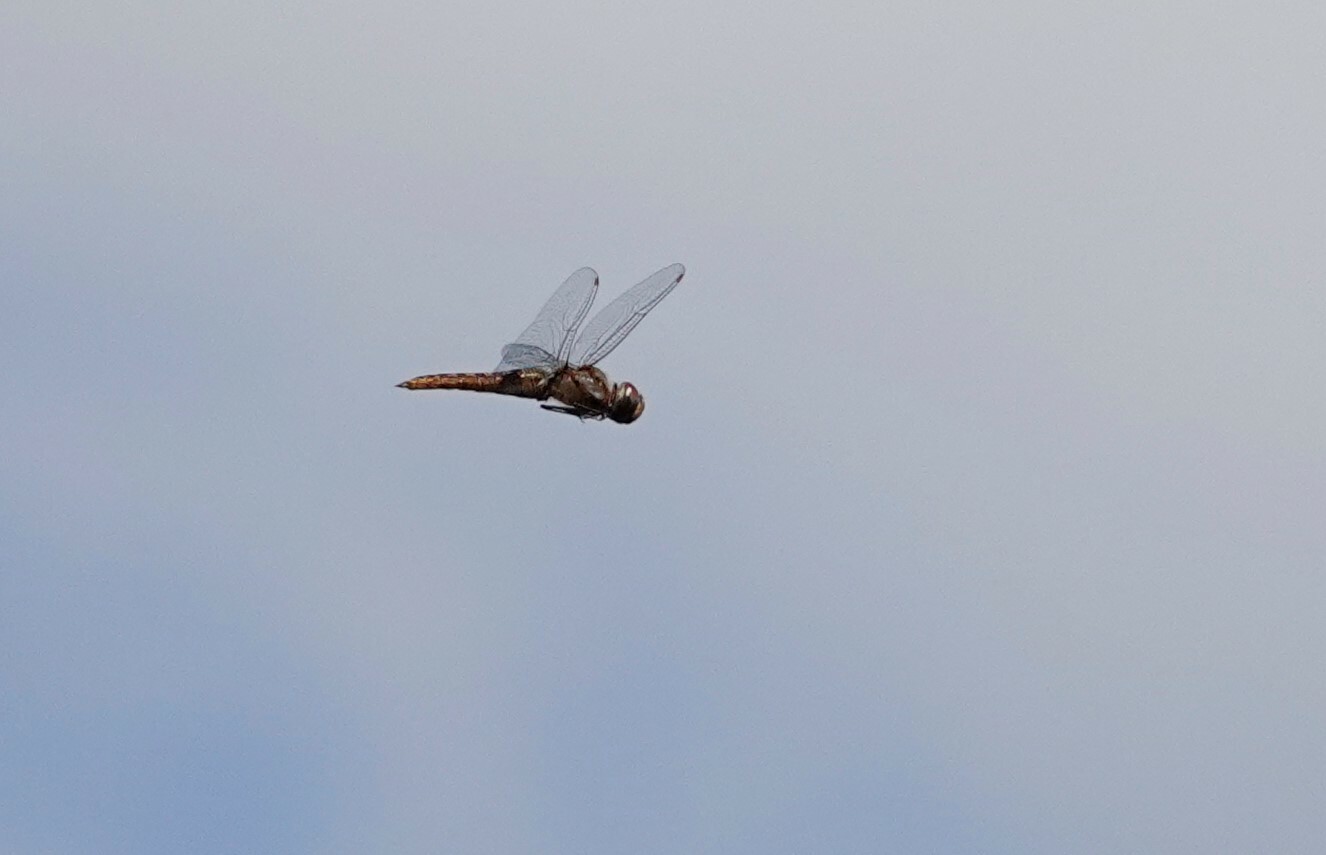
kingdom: Animalia
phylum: Arthropoda
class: Insecta
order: Odonata
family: Libellulidae
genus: Pantala
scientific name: Pantala hymenaea
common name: Spot-winged glider
